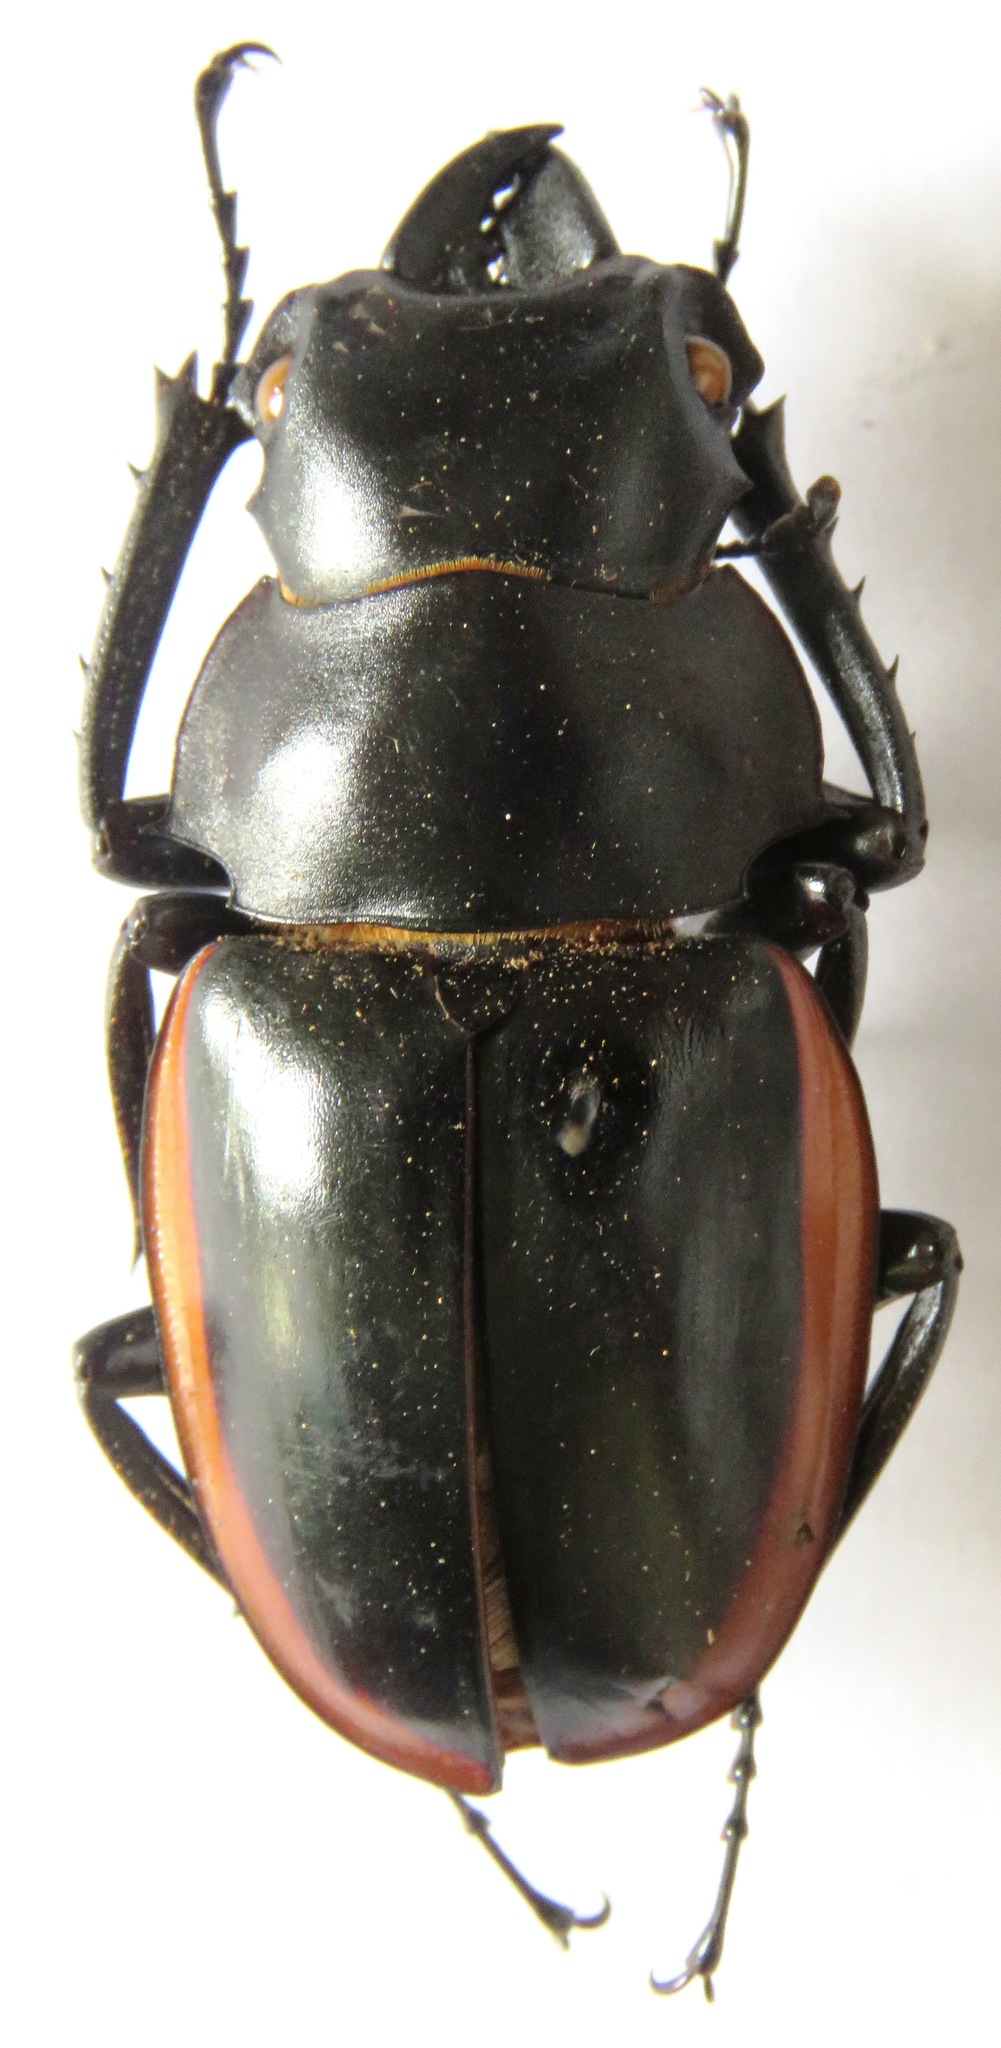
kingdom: Animalia
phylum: Arthropoda
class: Insecta
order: Coleoptera
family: Lucanidae
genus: Odontolabis
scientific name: Odontolabis cuvera
